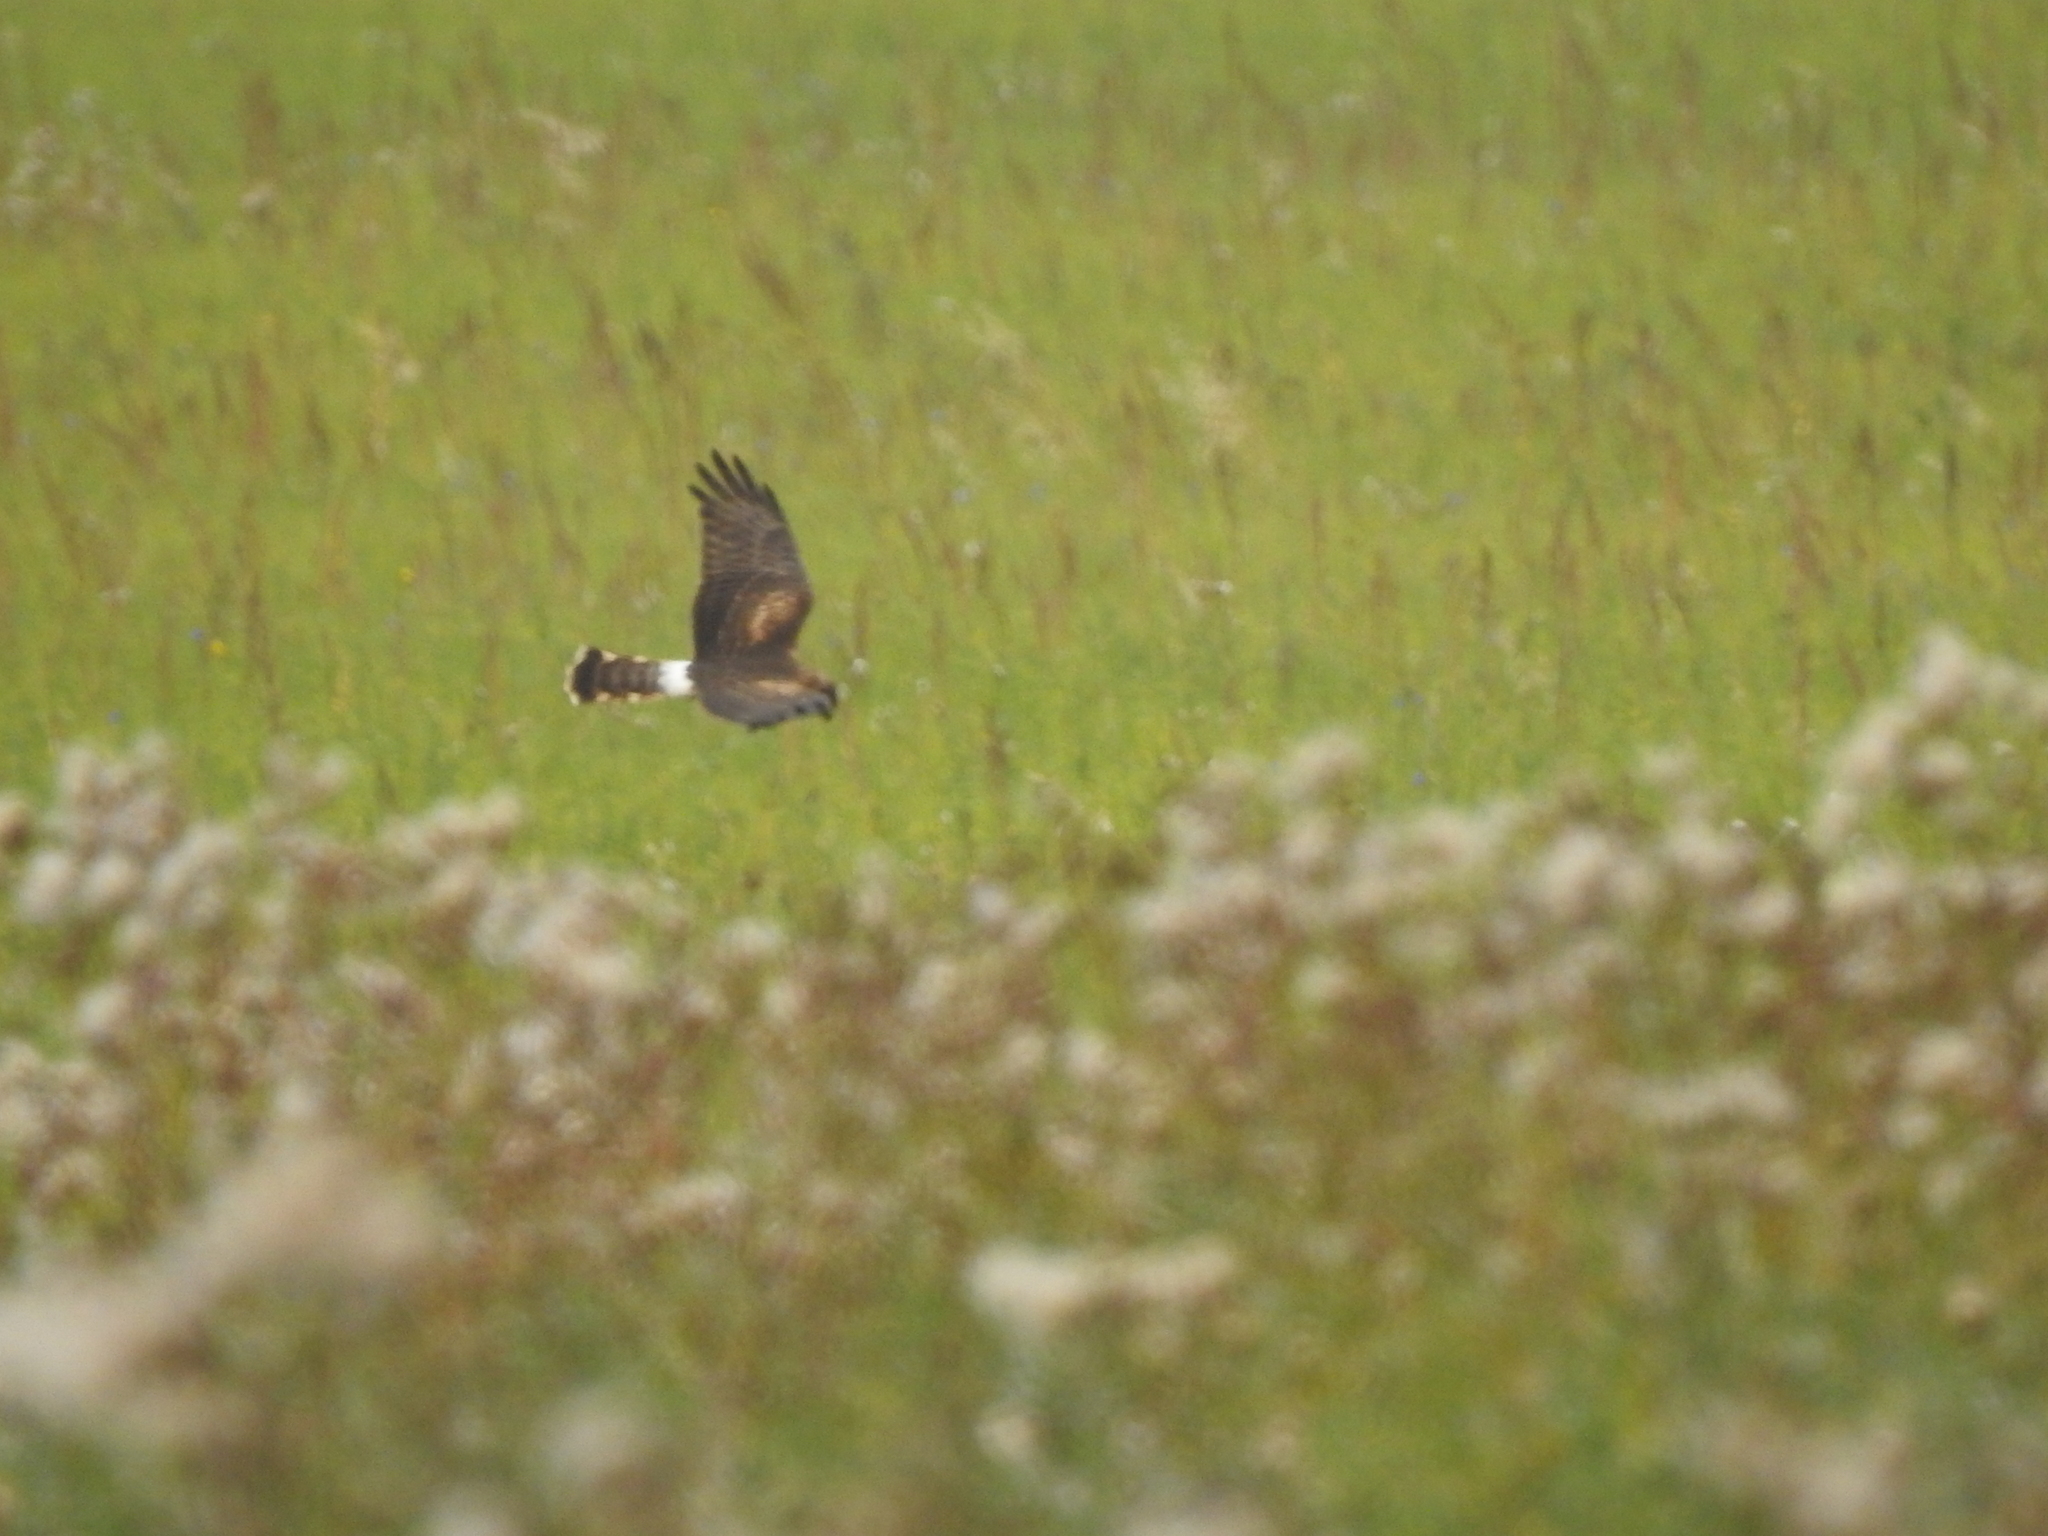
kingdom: Animalia
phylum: Chordata
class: Aves
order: Accipitriformes
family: Accipitridae
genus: Circus
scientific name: Circus cyaneus
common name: Hen harrier
